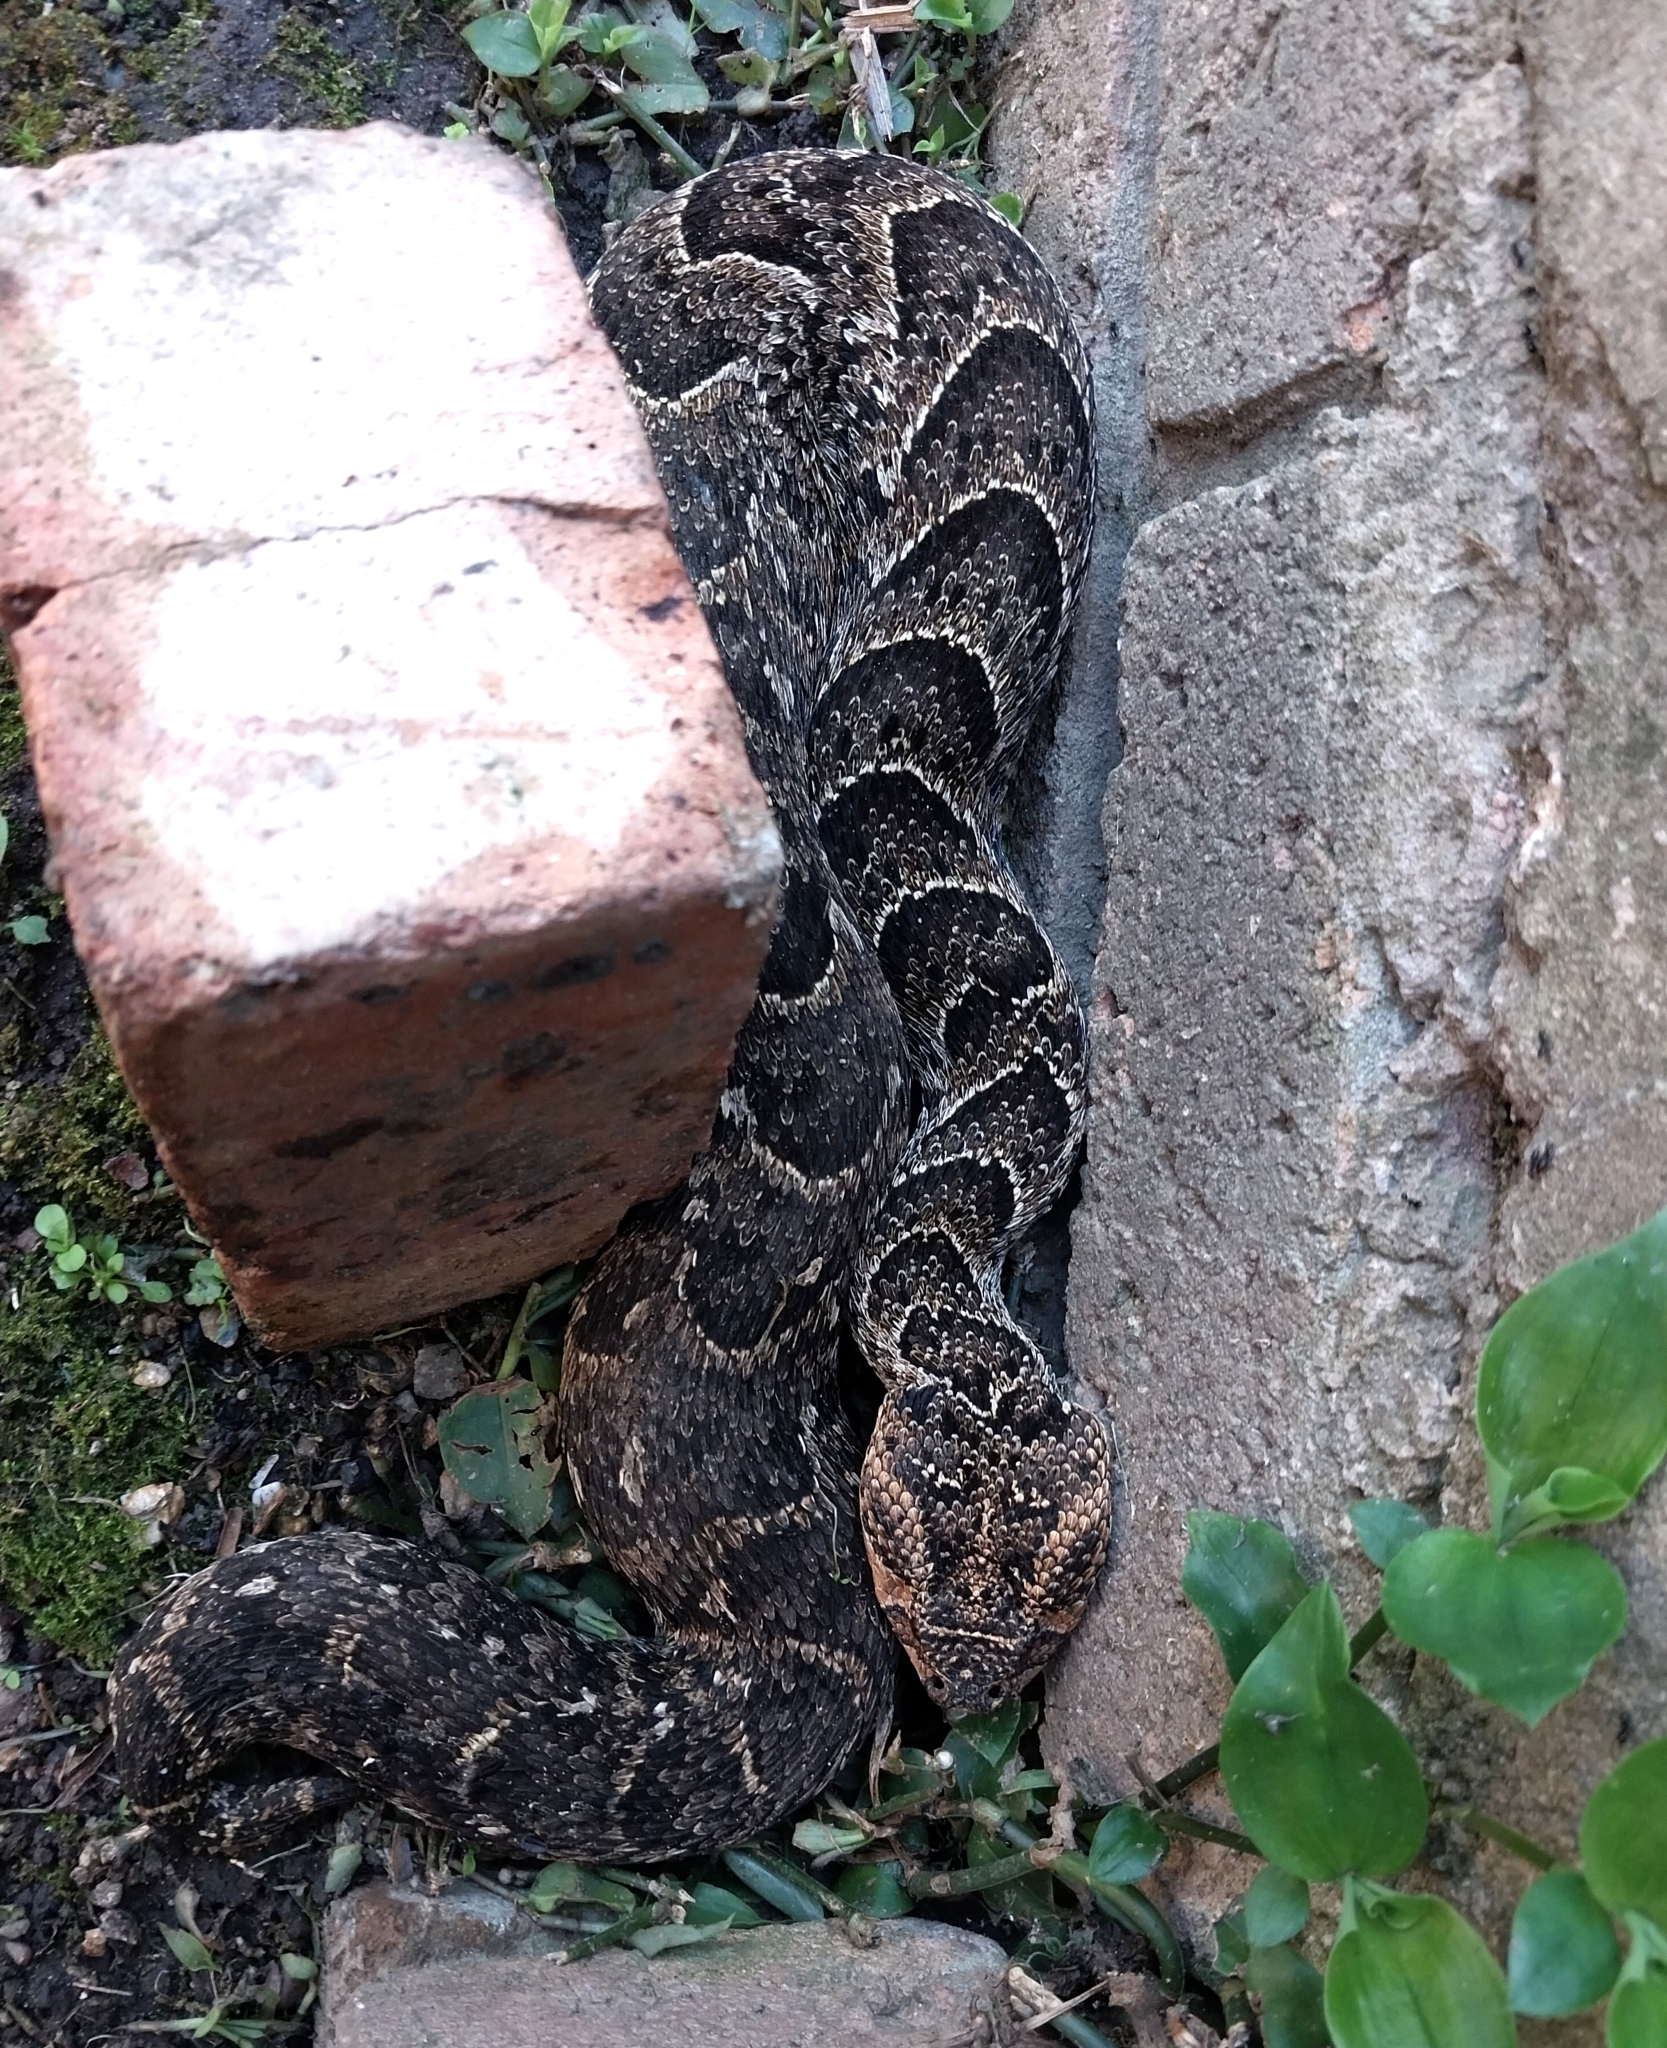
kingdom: Animalia
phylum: Chordata
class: Squamata
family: Viperidae
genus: Bitis
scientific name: Bitis arietans
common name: Puff adder
